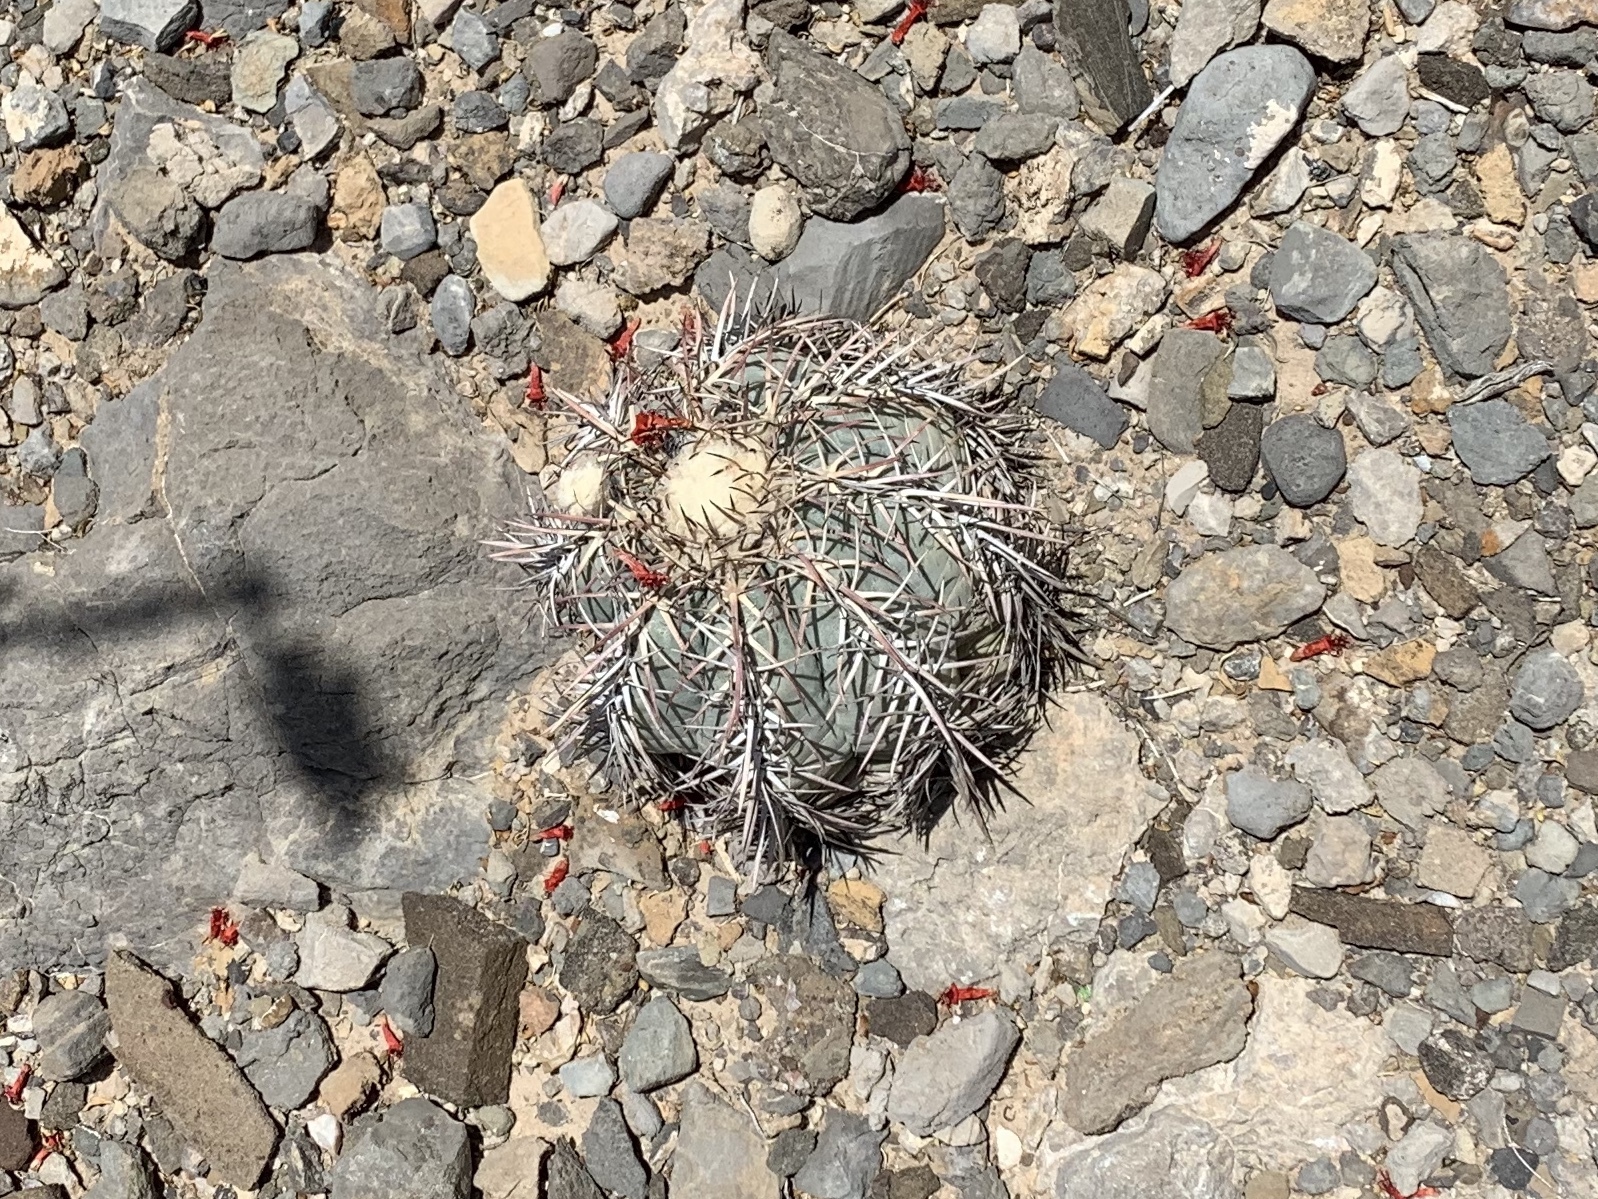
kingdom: Plantae
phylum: Tracheophyta
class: Magnoliopsida
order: Caryophyllales
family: Cactaceae
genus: Echinocactus
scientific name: Echinocactus horizonthalonius
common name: Devilshead
